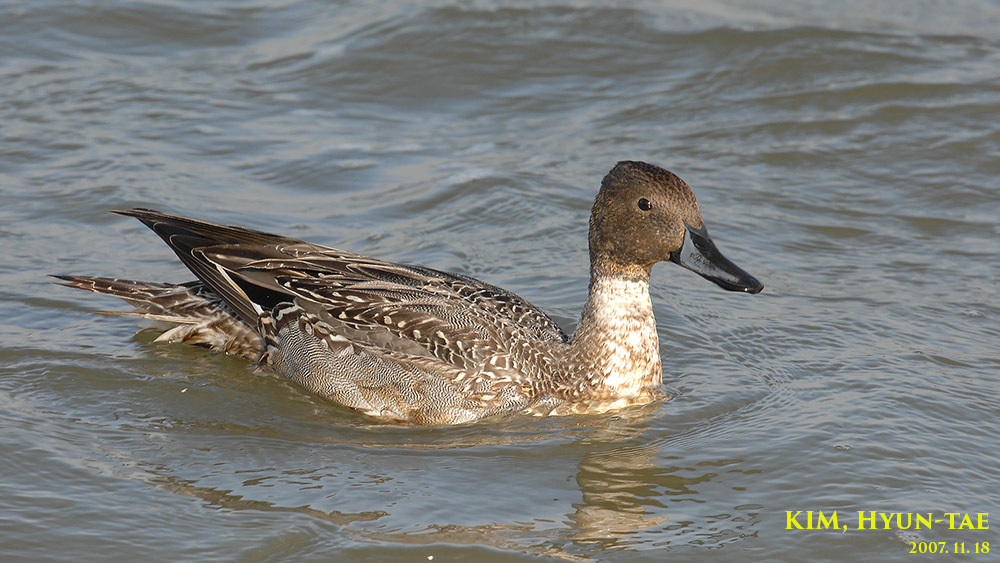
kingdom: Animalia
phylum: Chordata
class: Aves
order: Anseriformes
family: Anatidae
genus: Anas
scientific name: Anas acuta
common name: Northern pintail
